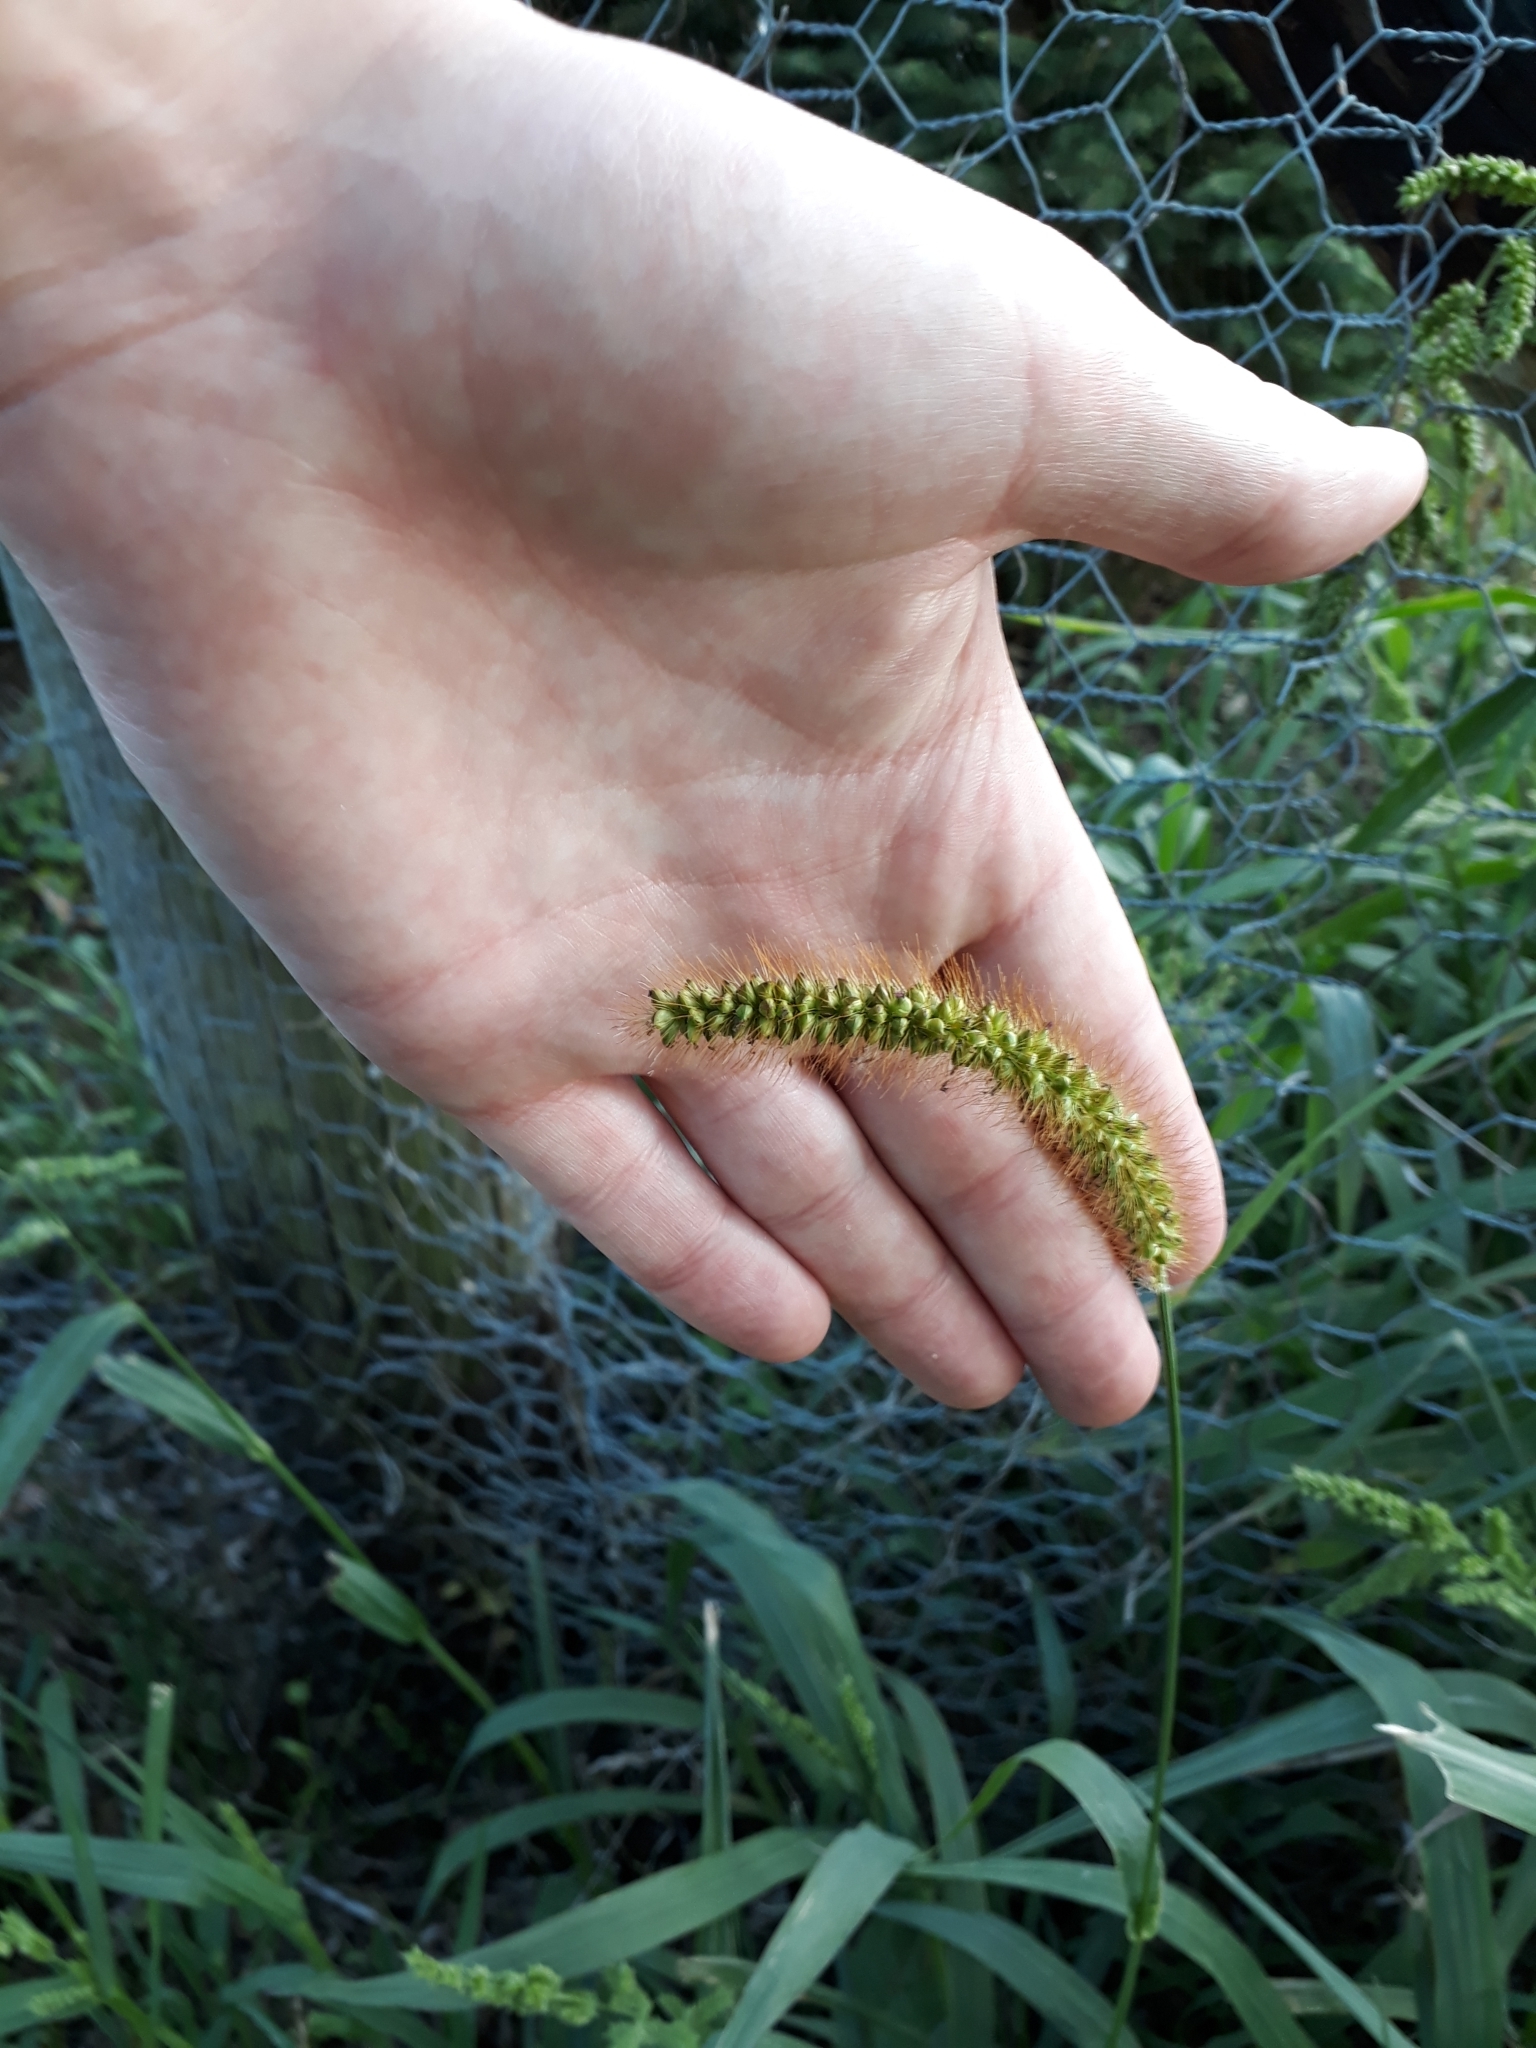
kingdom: Plantae
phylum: Tracheophyta
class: Liliopsida
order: Poales
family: Poaceae
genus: Setaria
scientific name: Setaria pumila
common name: Yellow bristle-grass
